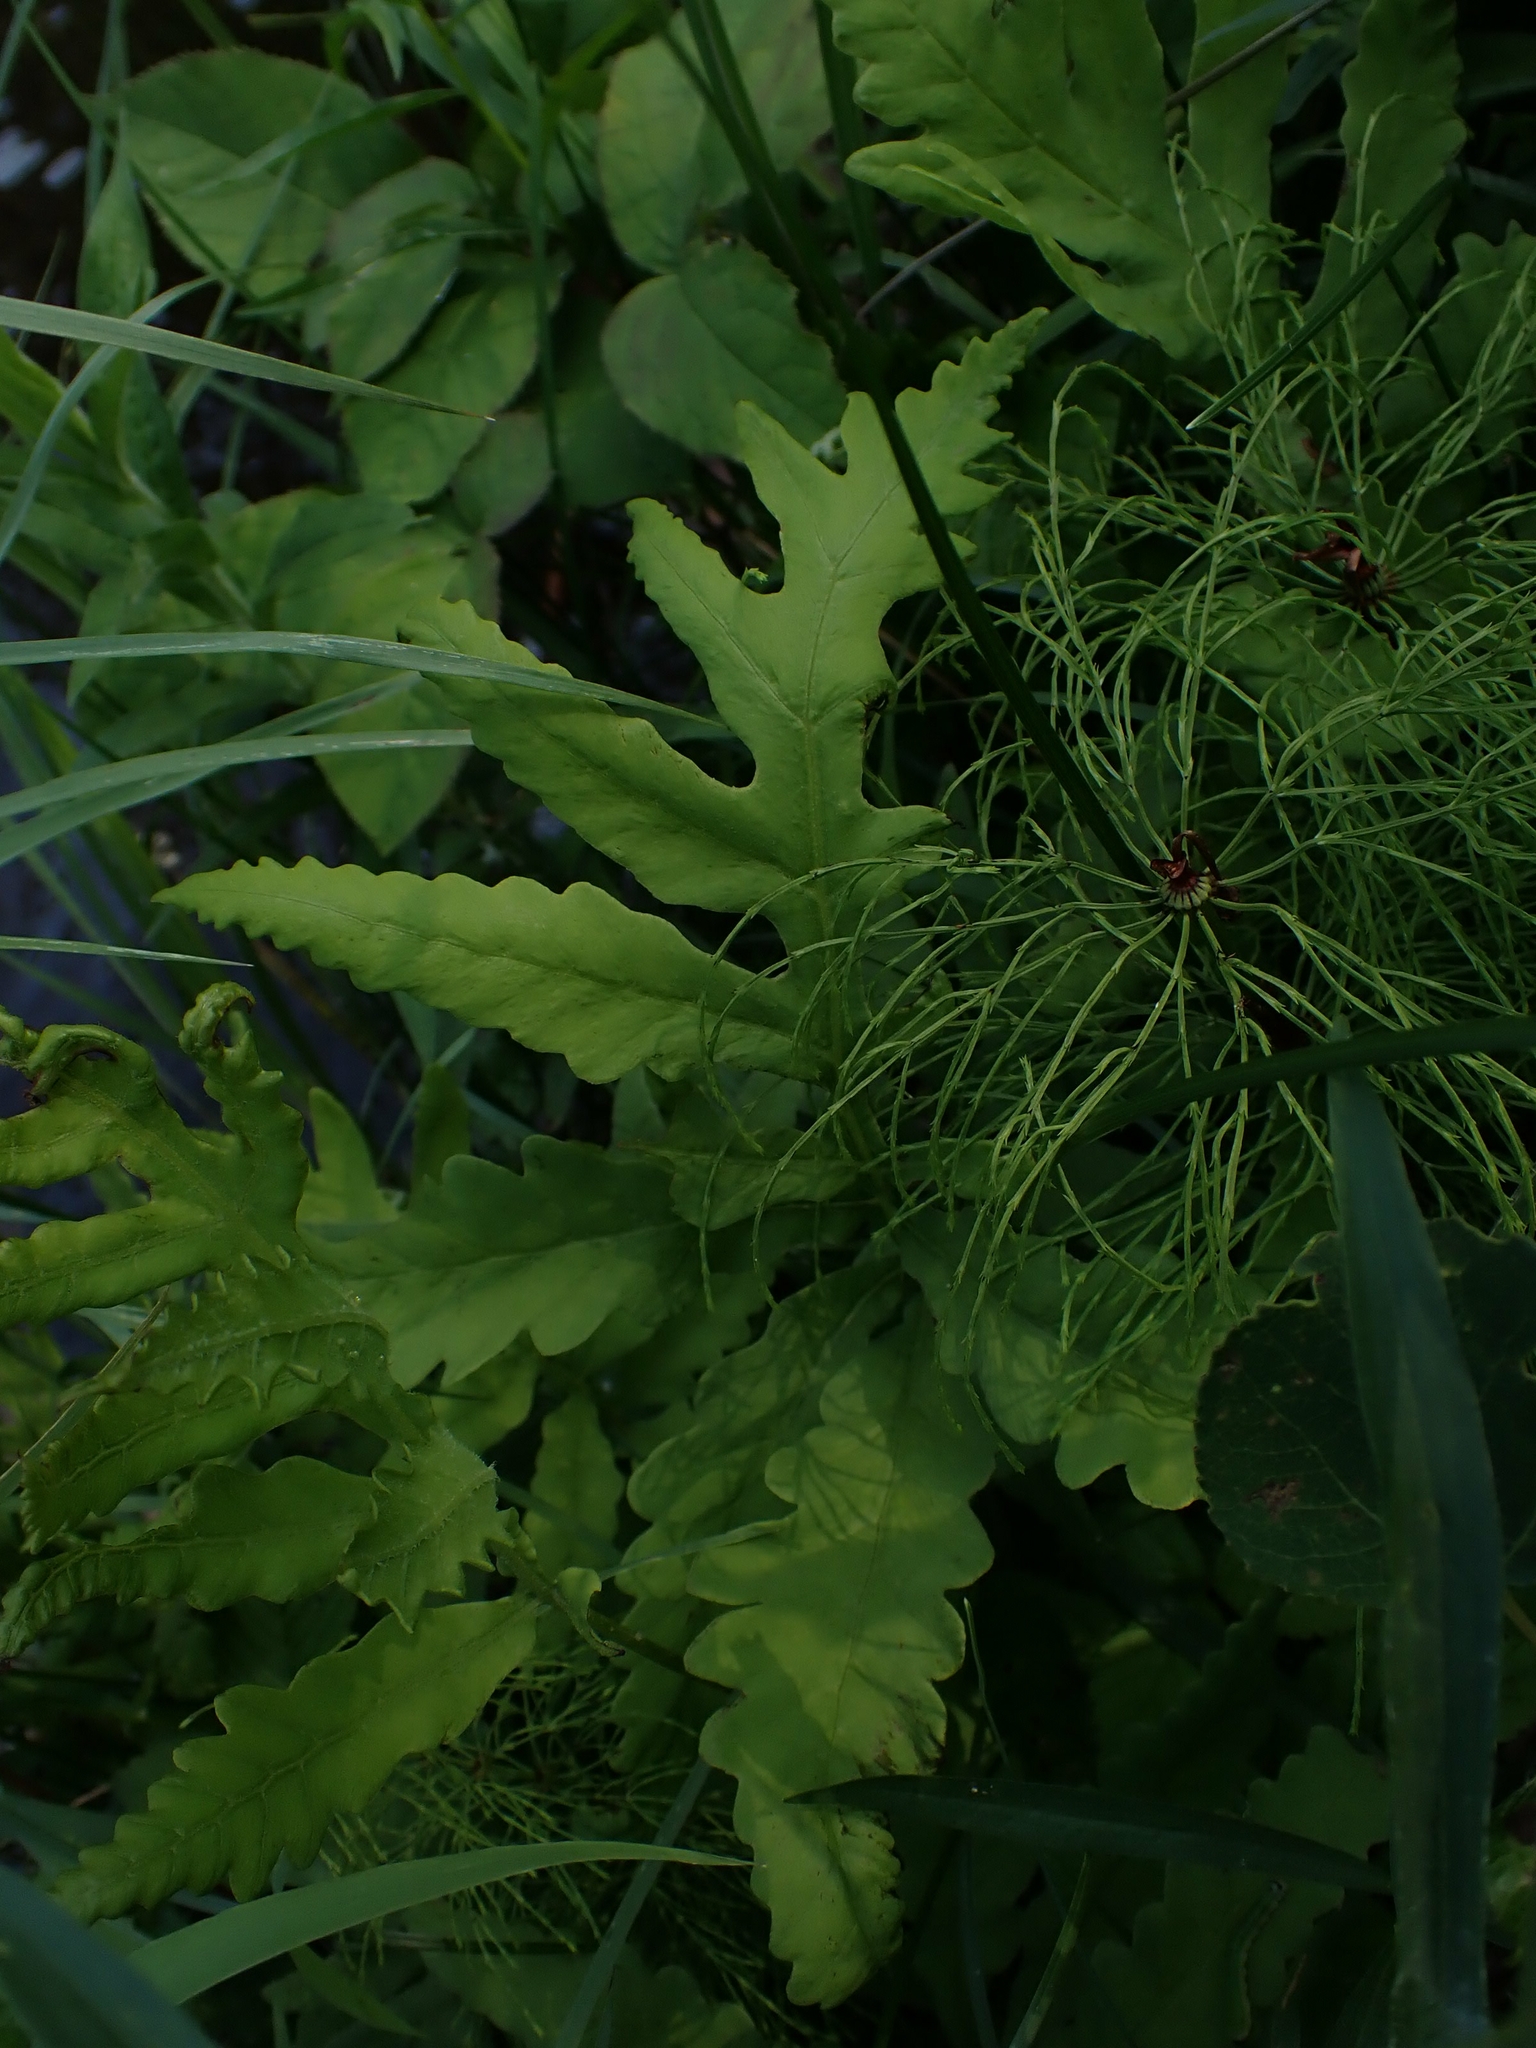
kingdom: Plantae
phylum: Tracheophyta
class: Polypodiopsida
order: Polypodiales
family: Onocleaceae
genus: Onoclea
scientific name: Onoclea sensibilis
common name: Sensitive fern
